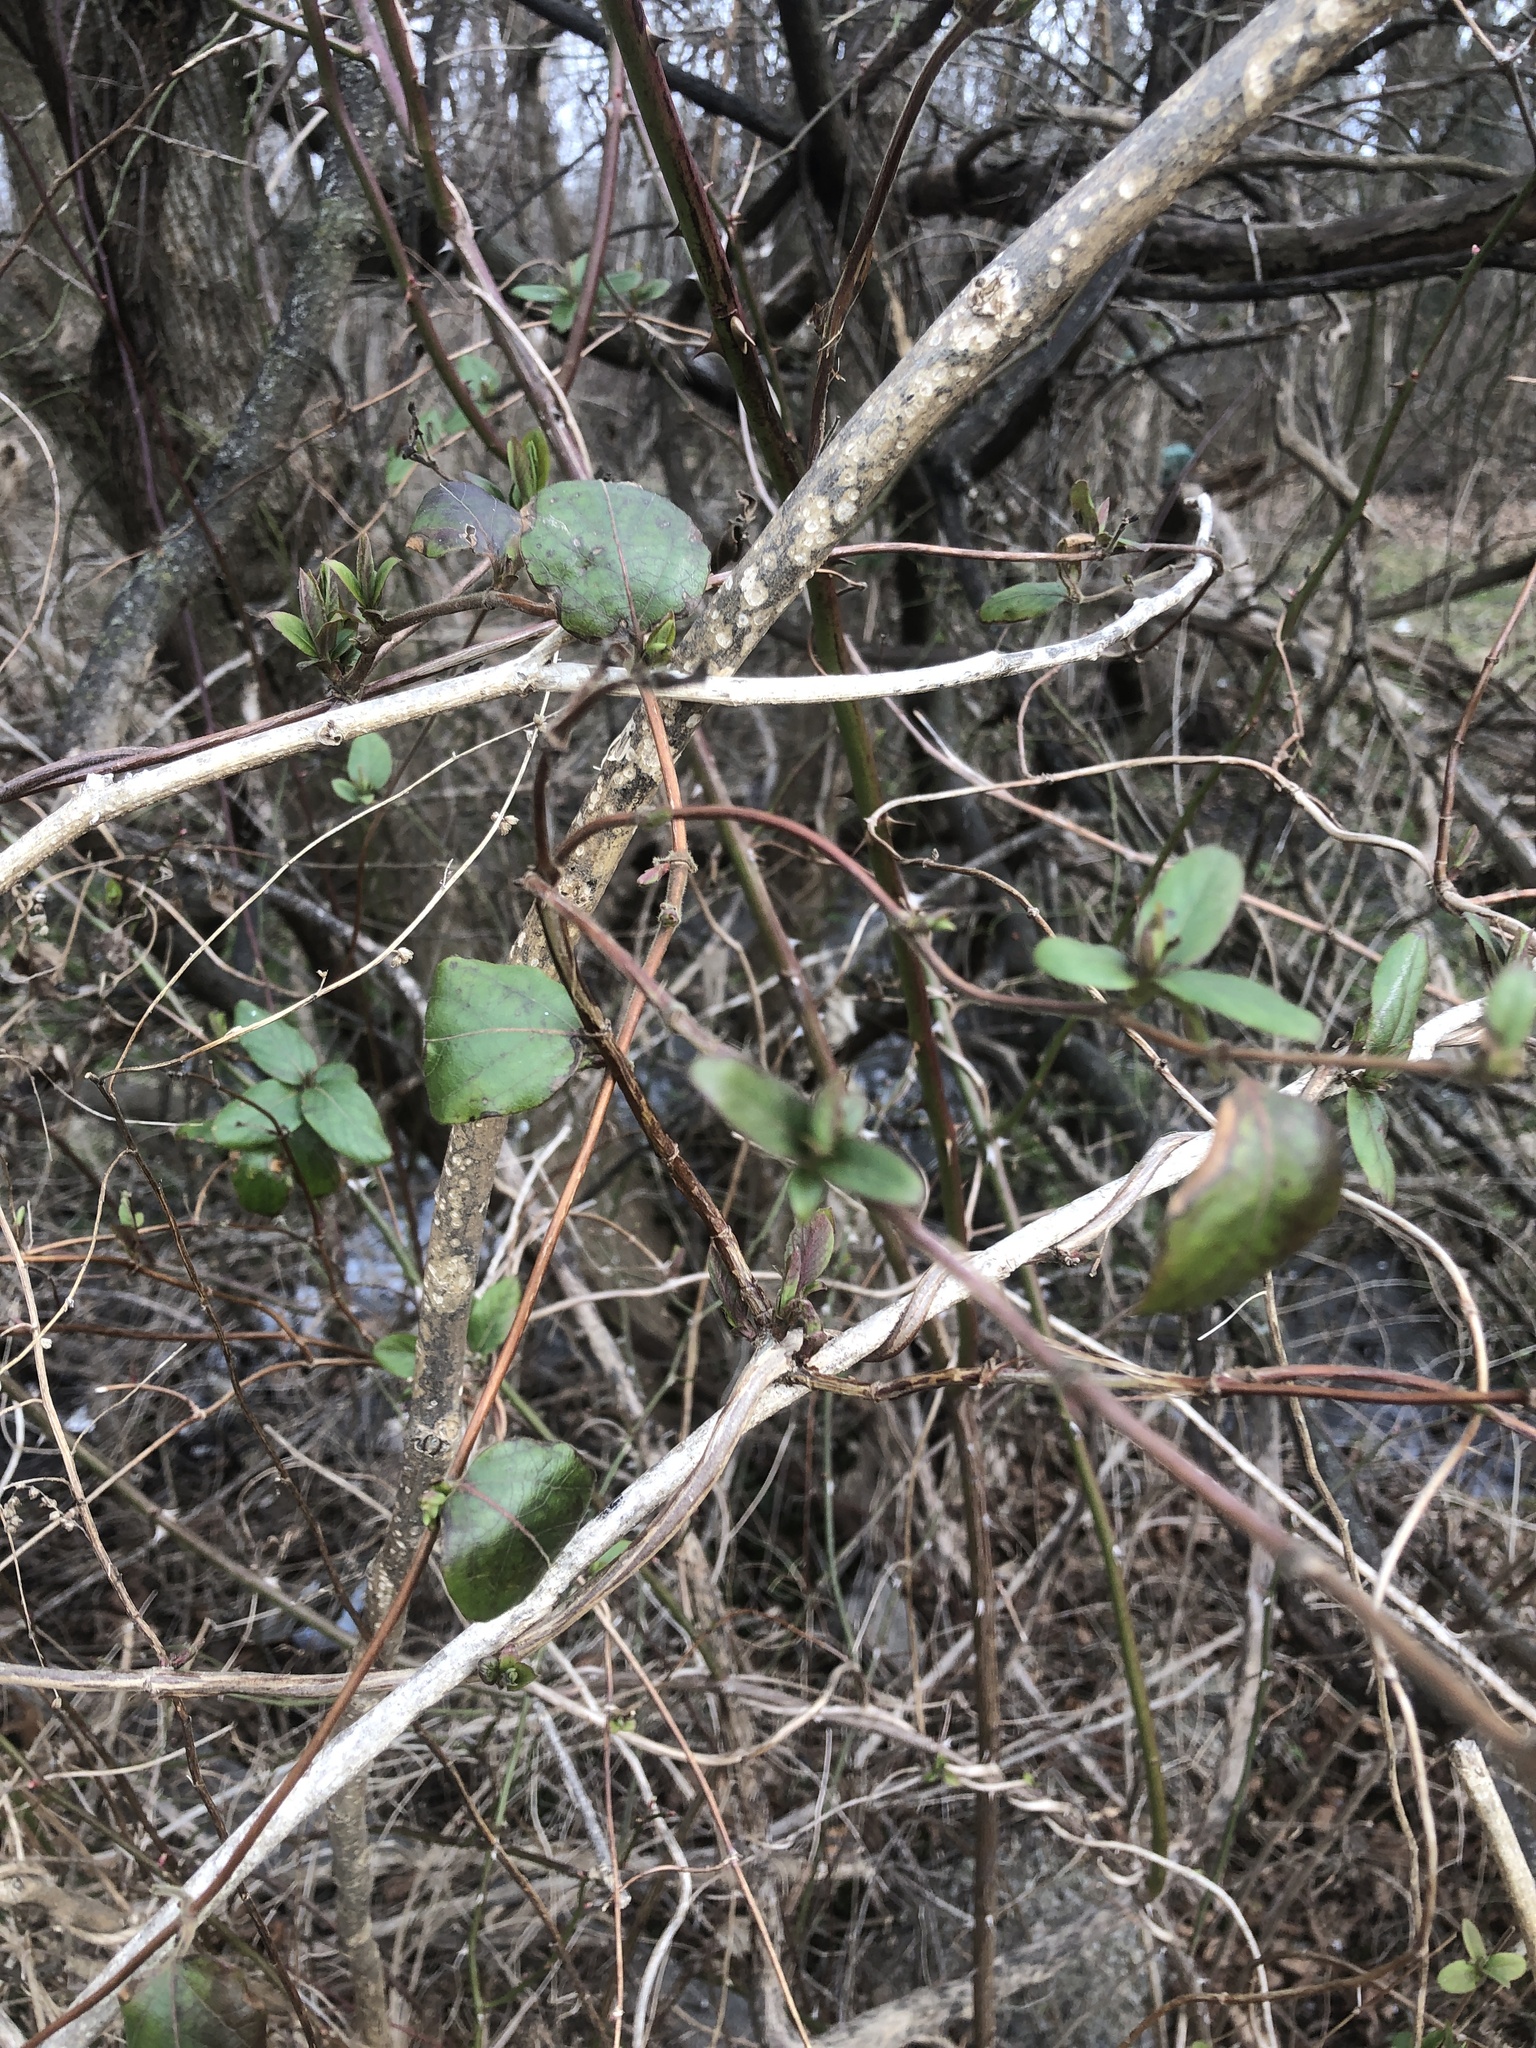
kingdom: Plantae
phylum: Tracheophyta
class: Magnoliopsida
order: Dipsacales
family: Caprifoliaceae
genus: Lonicera
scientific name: Lonicera japonica
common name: Japanese honeysuckle
